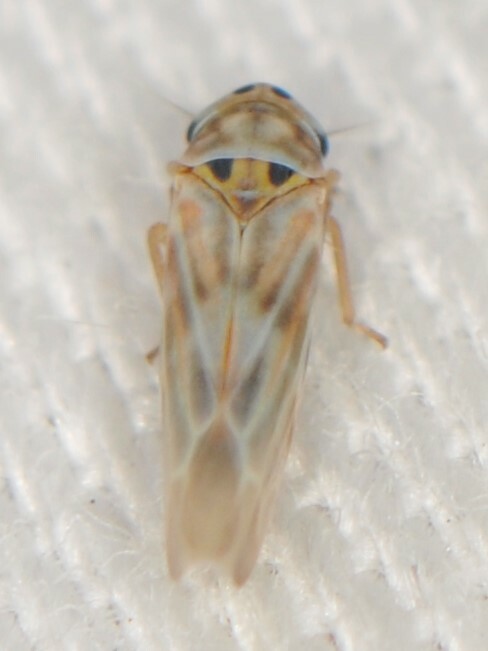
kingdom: Animalia
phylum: Arthropoda
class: Insecta
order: Hemiptera
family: Cicadellidae
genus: Neozygina
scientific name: Neozygina
